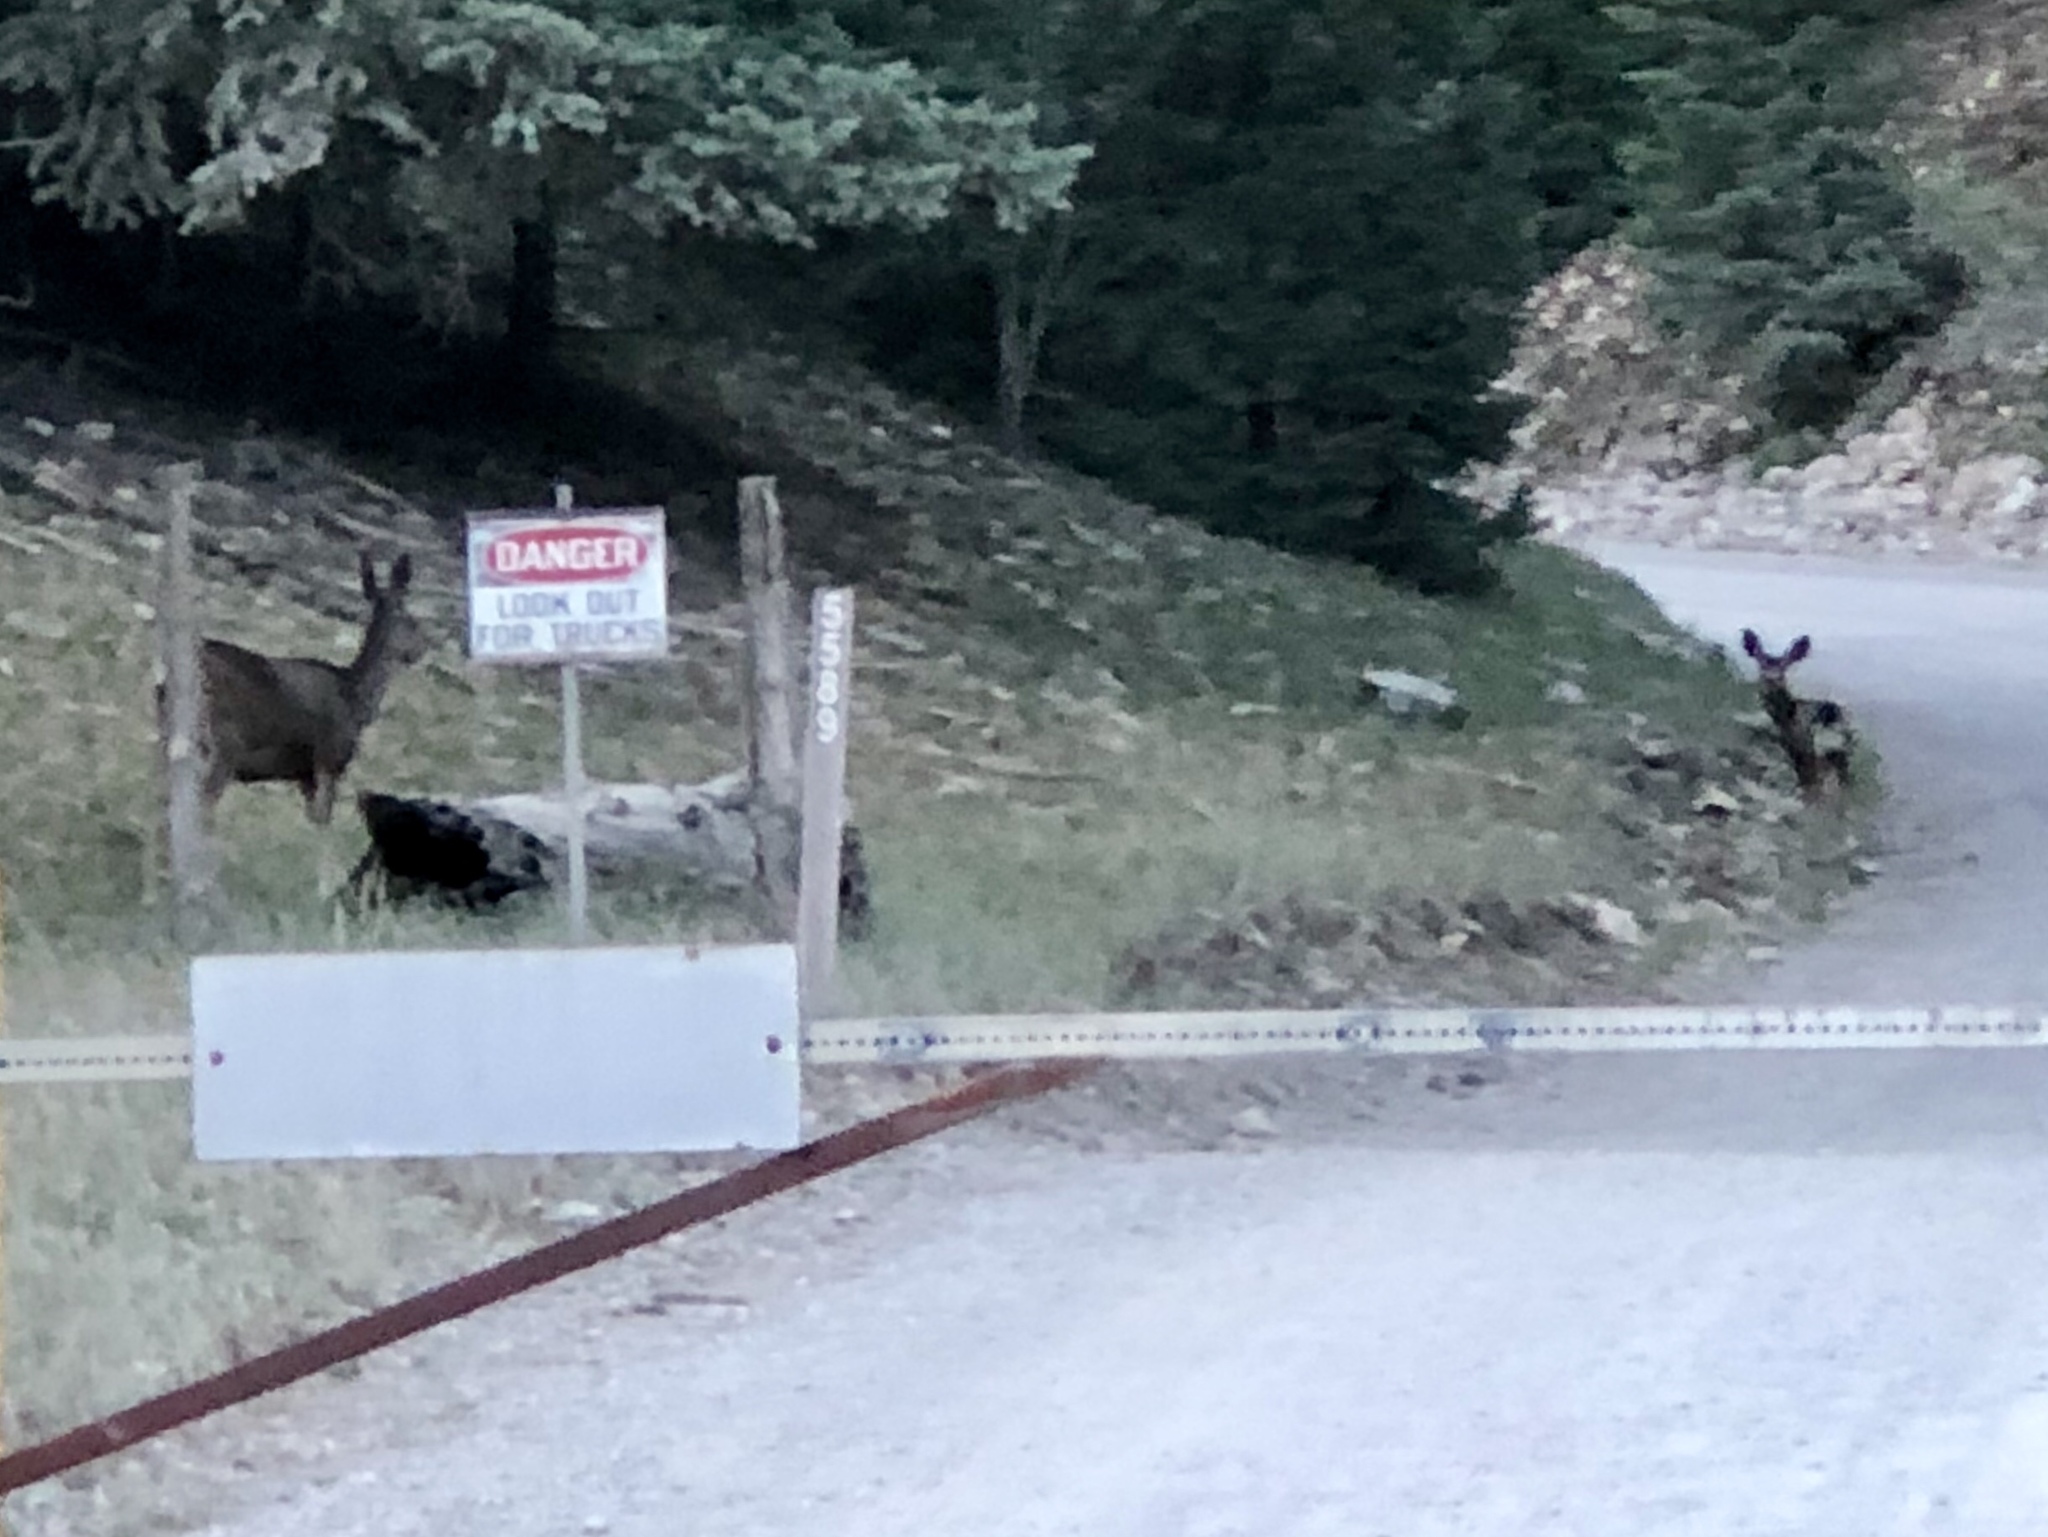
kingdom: Animalia
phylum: Chordata
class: Mammalia
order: Artiodactyla
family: Cervidae
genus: Odocoileus
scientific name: Odocoileus hemionus
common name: Mule deer
